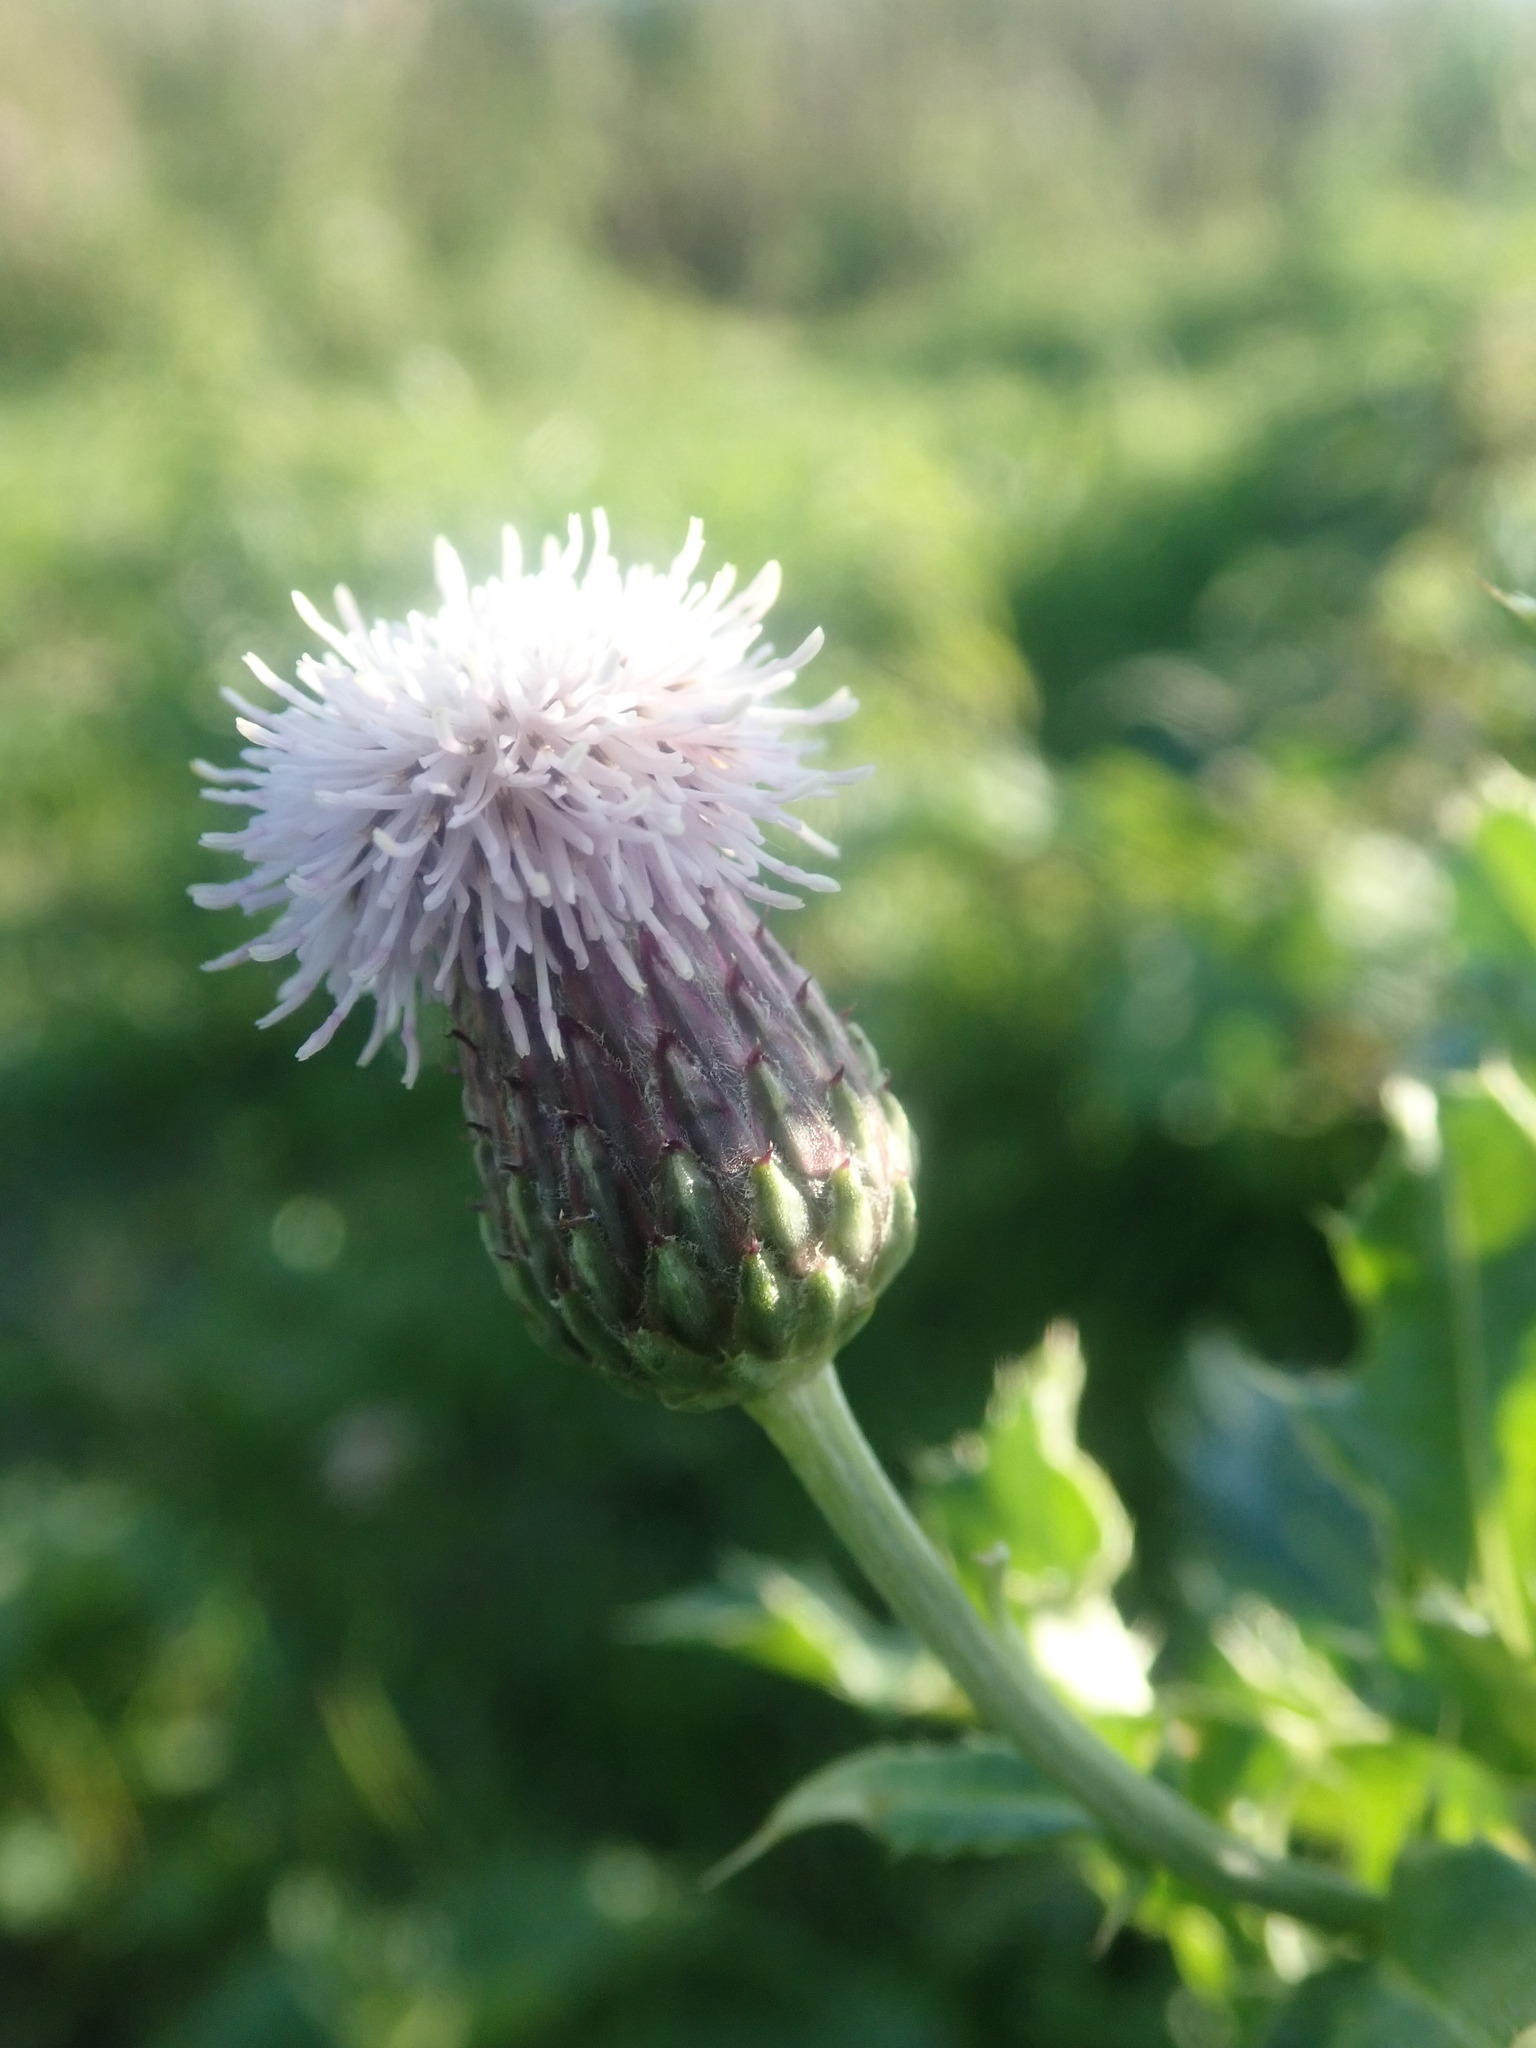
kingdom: Plantae
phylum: Tracheophyta
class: Magnoliopsida
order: Asterales
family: Asteraceae
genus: Cirsium
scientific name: Cirsium arvense
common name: Creeping thistle
